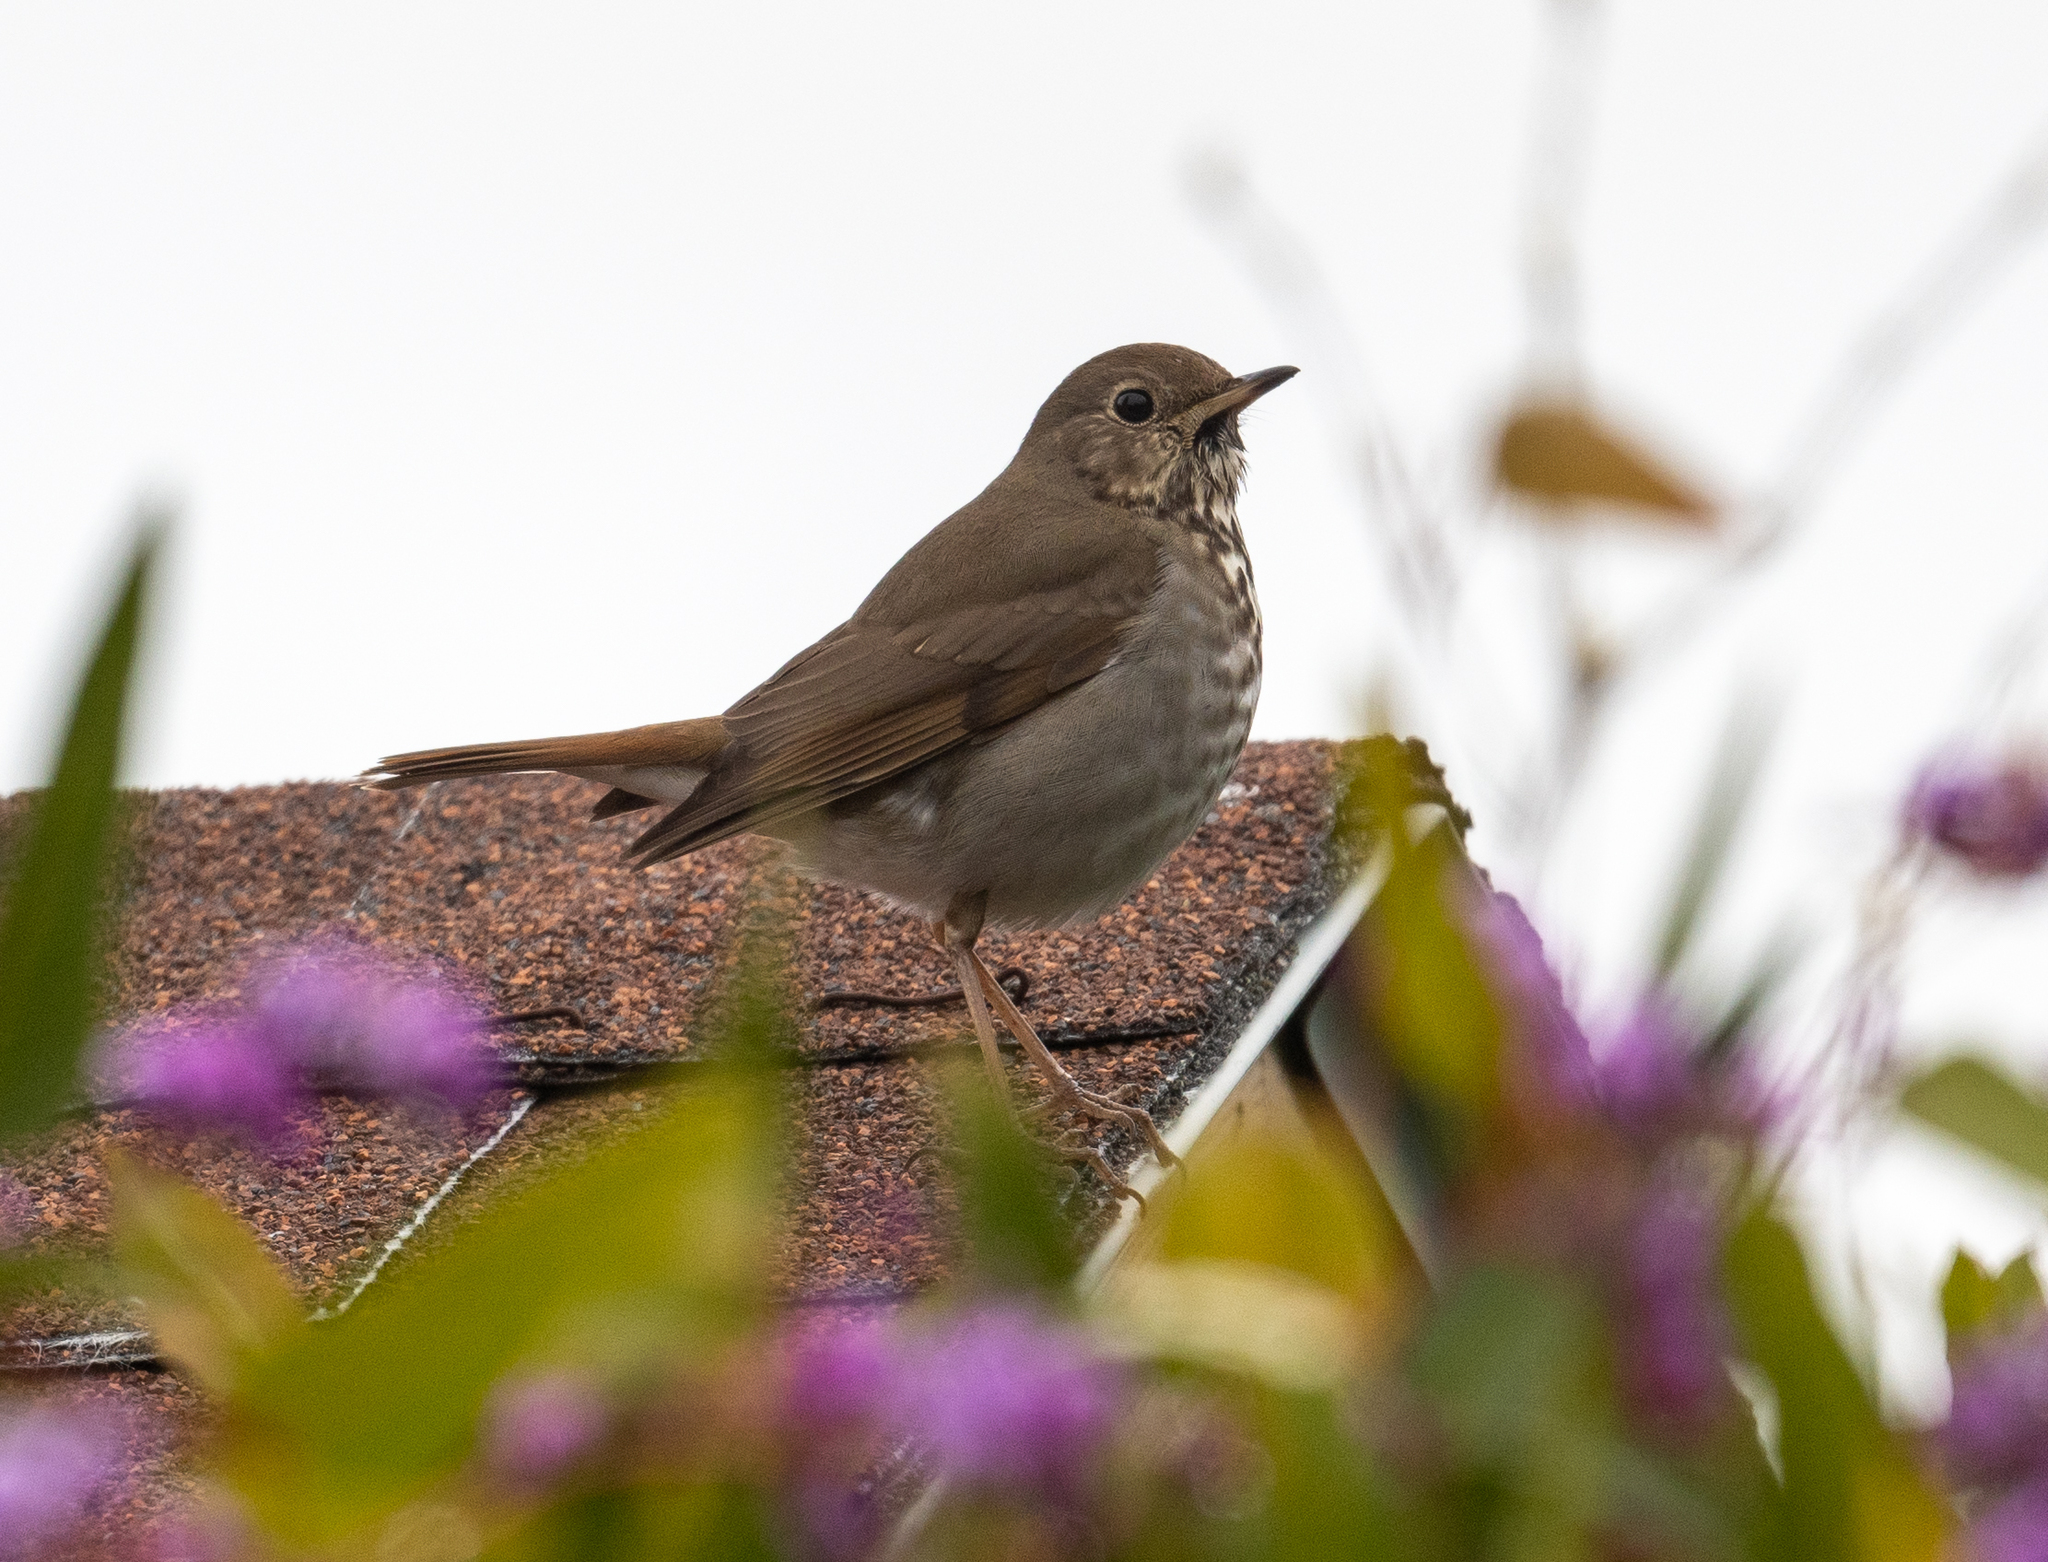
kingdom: Animalia
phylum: Chordata
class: Aves
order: Passeriformes
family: Turdidae
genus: Catharus
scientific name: Catharus guttatus
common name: Hermit thrush
